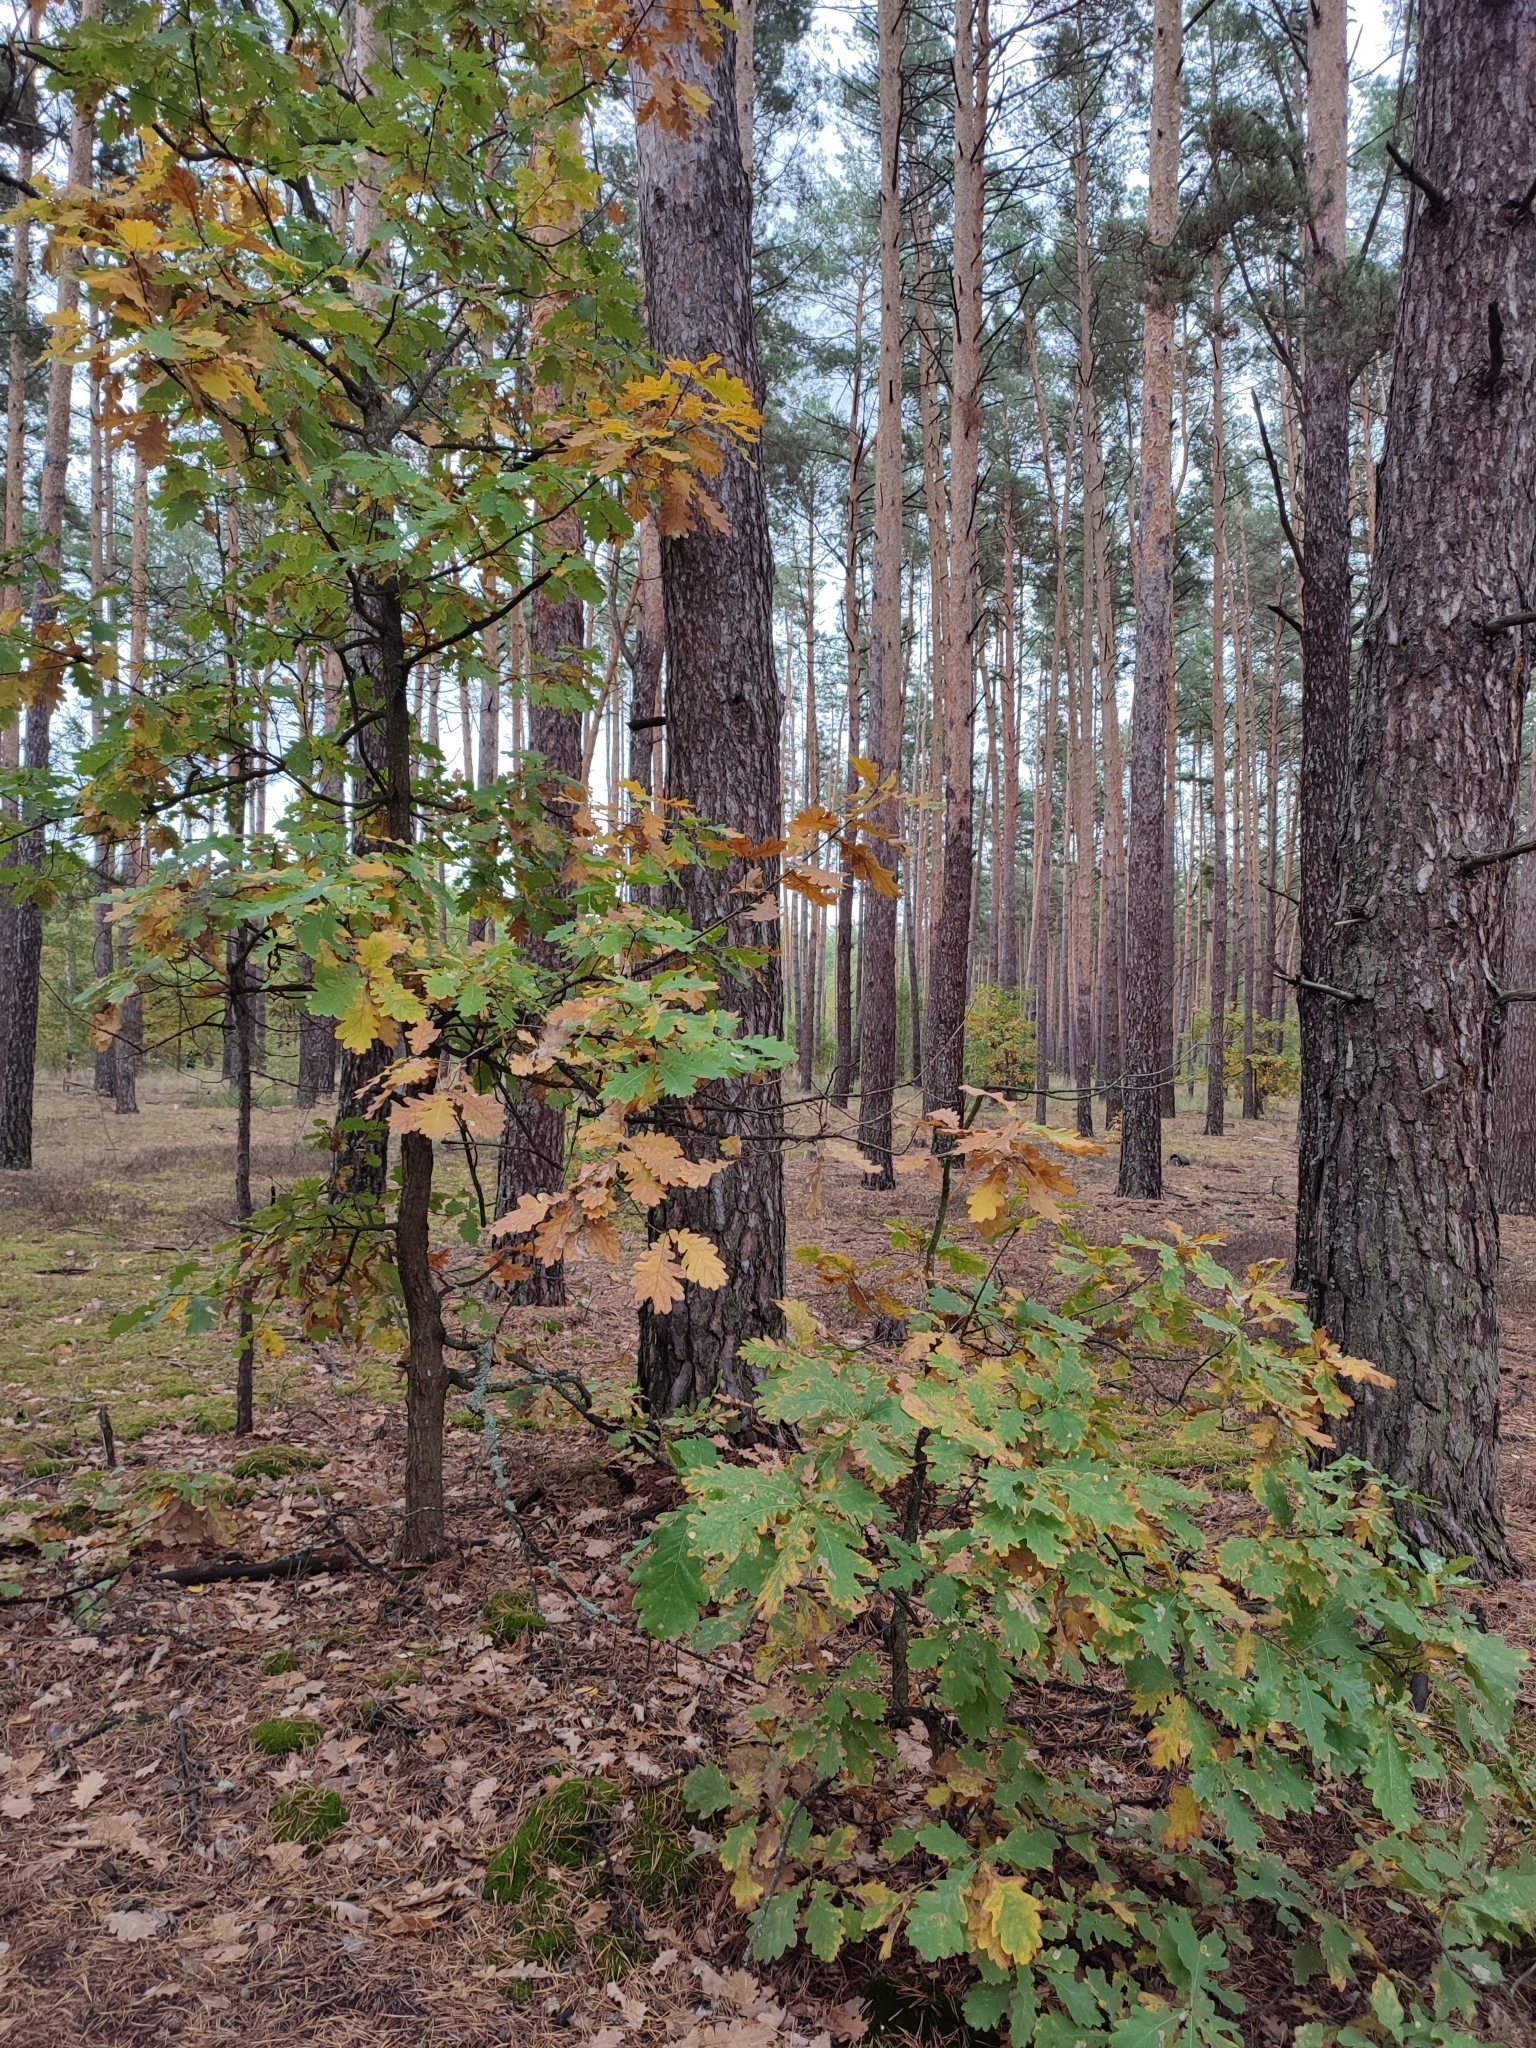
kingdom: Plantae
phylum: Tracheophyta
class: Magnoliopsida
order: Fagales
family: Fagaceae
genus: Quercus
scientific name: Quercus robur
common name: Pedunculate oak
